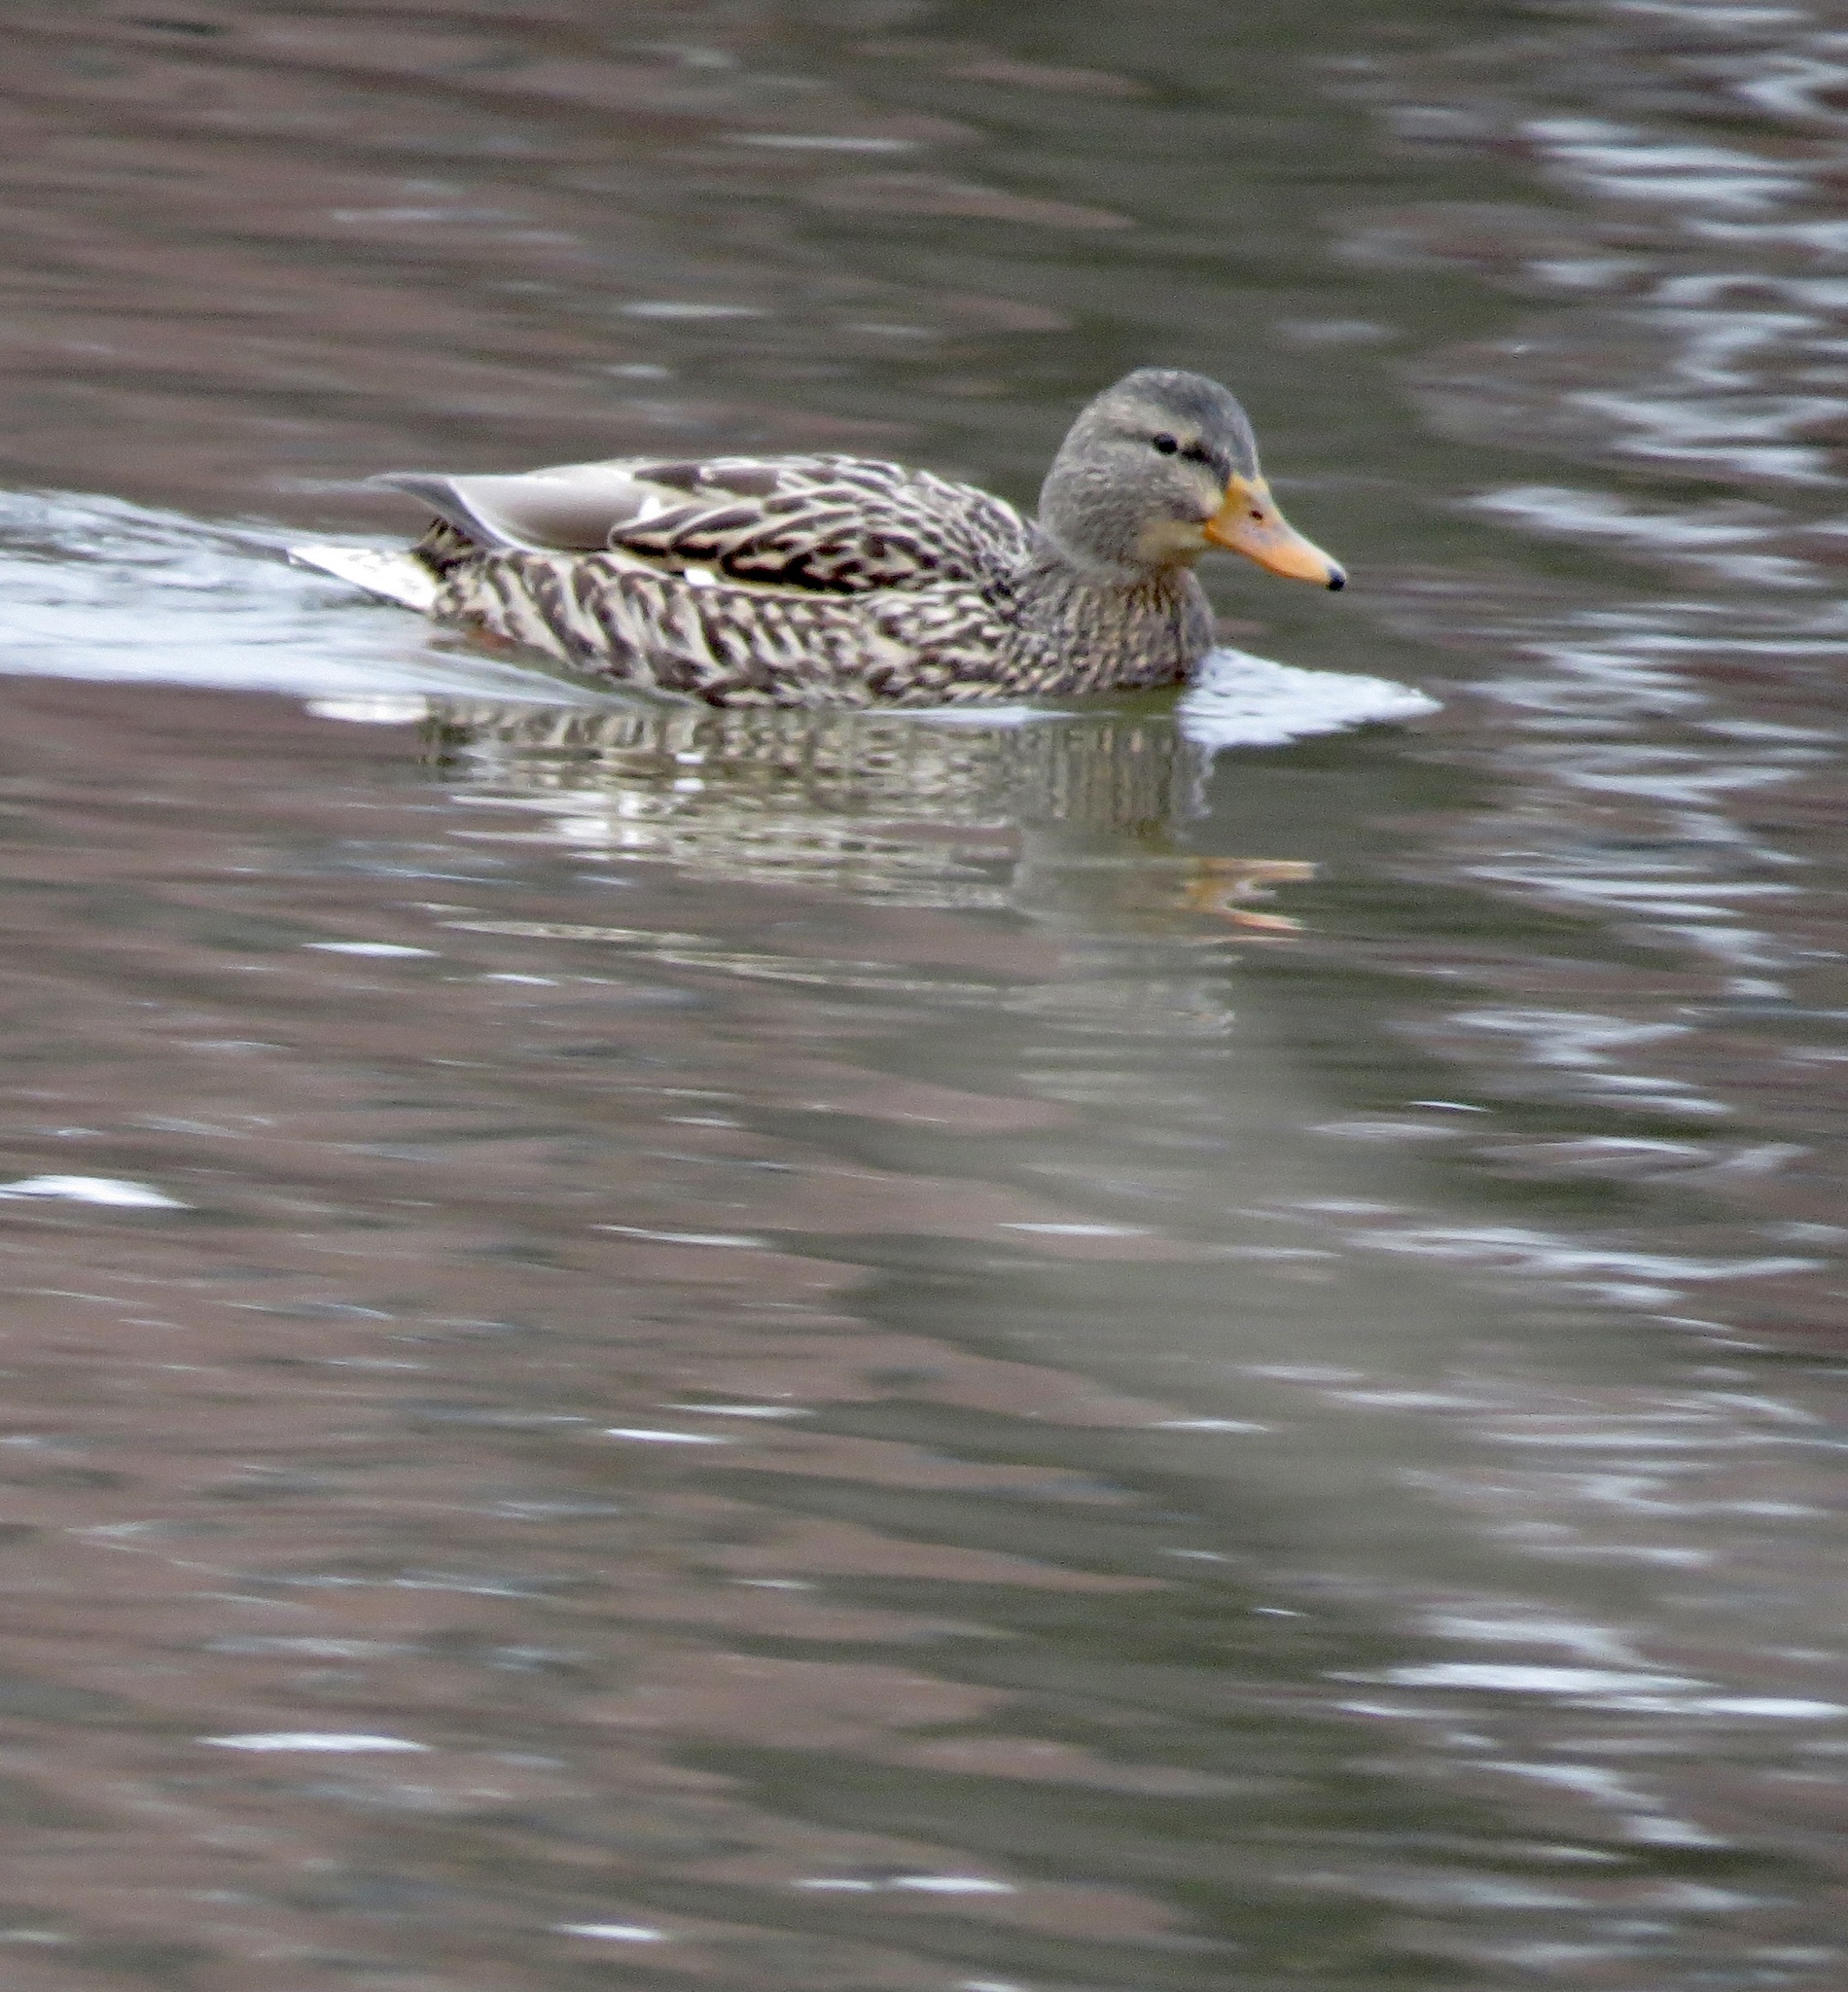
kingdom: Animalia
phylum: Chordata
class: Aves
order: Anseriformes
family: Anatidae
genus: Anas
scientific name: Anas platyrhynchos
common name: Mallard
